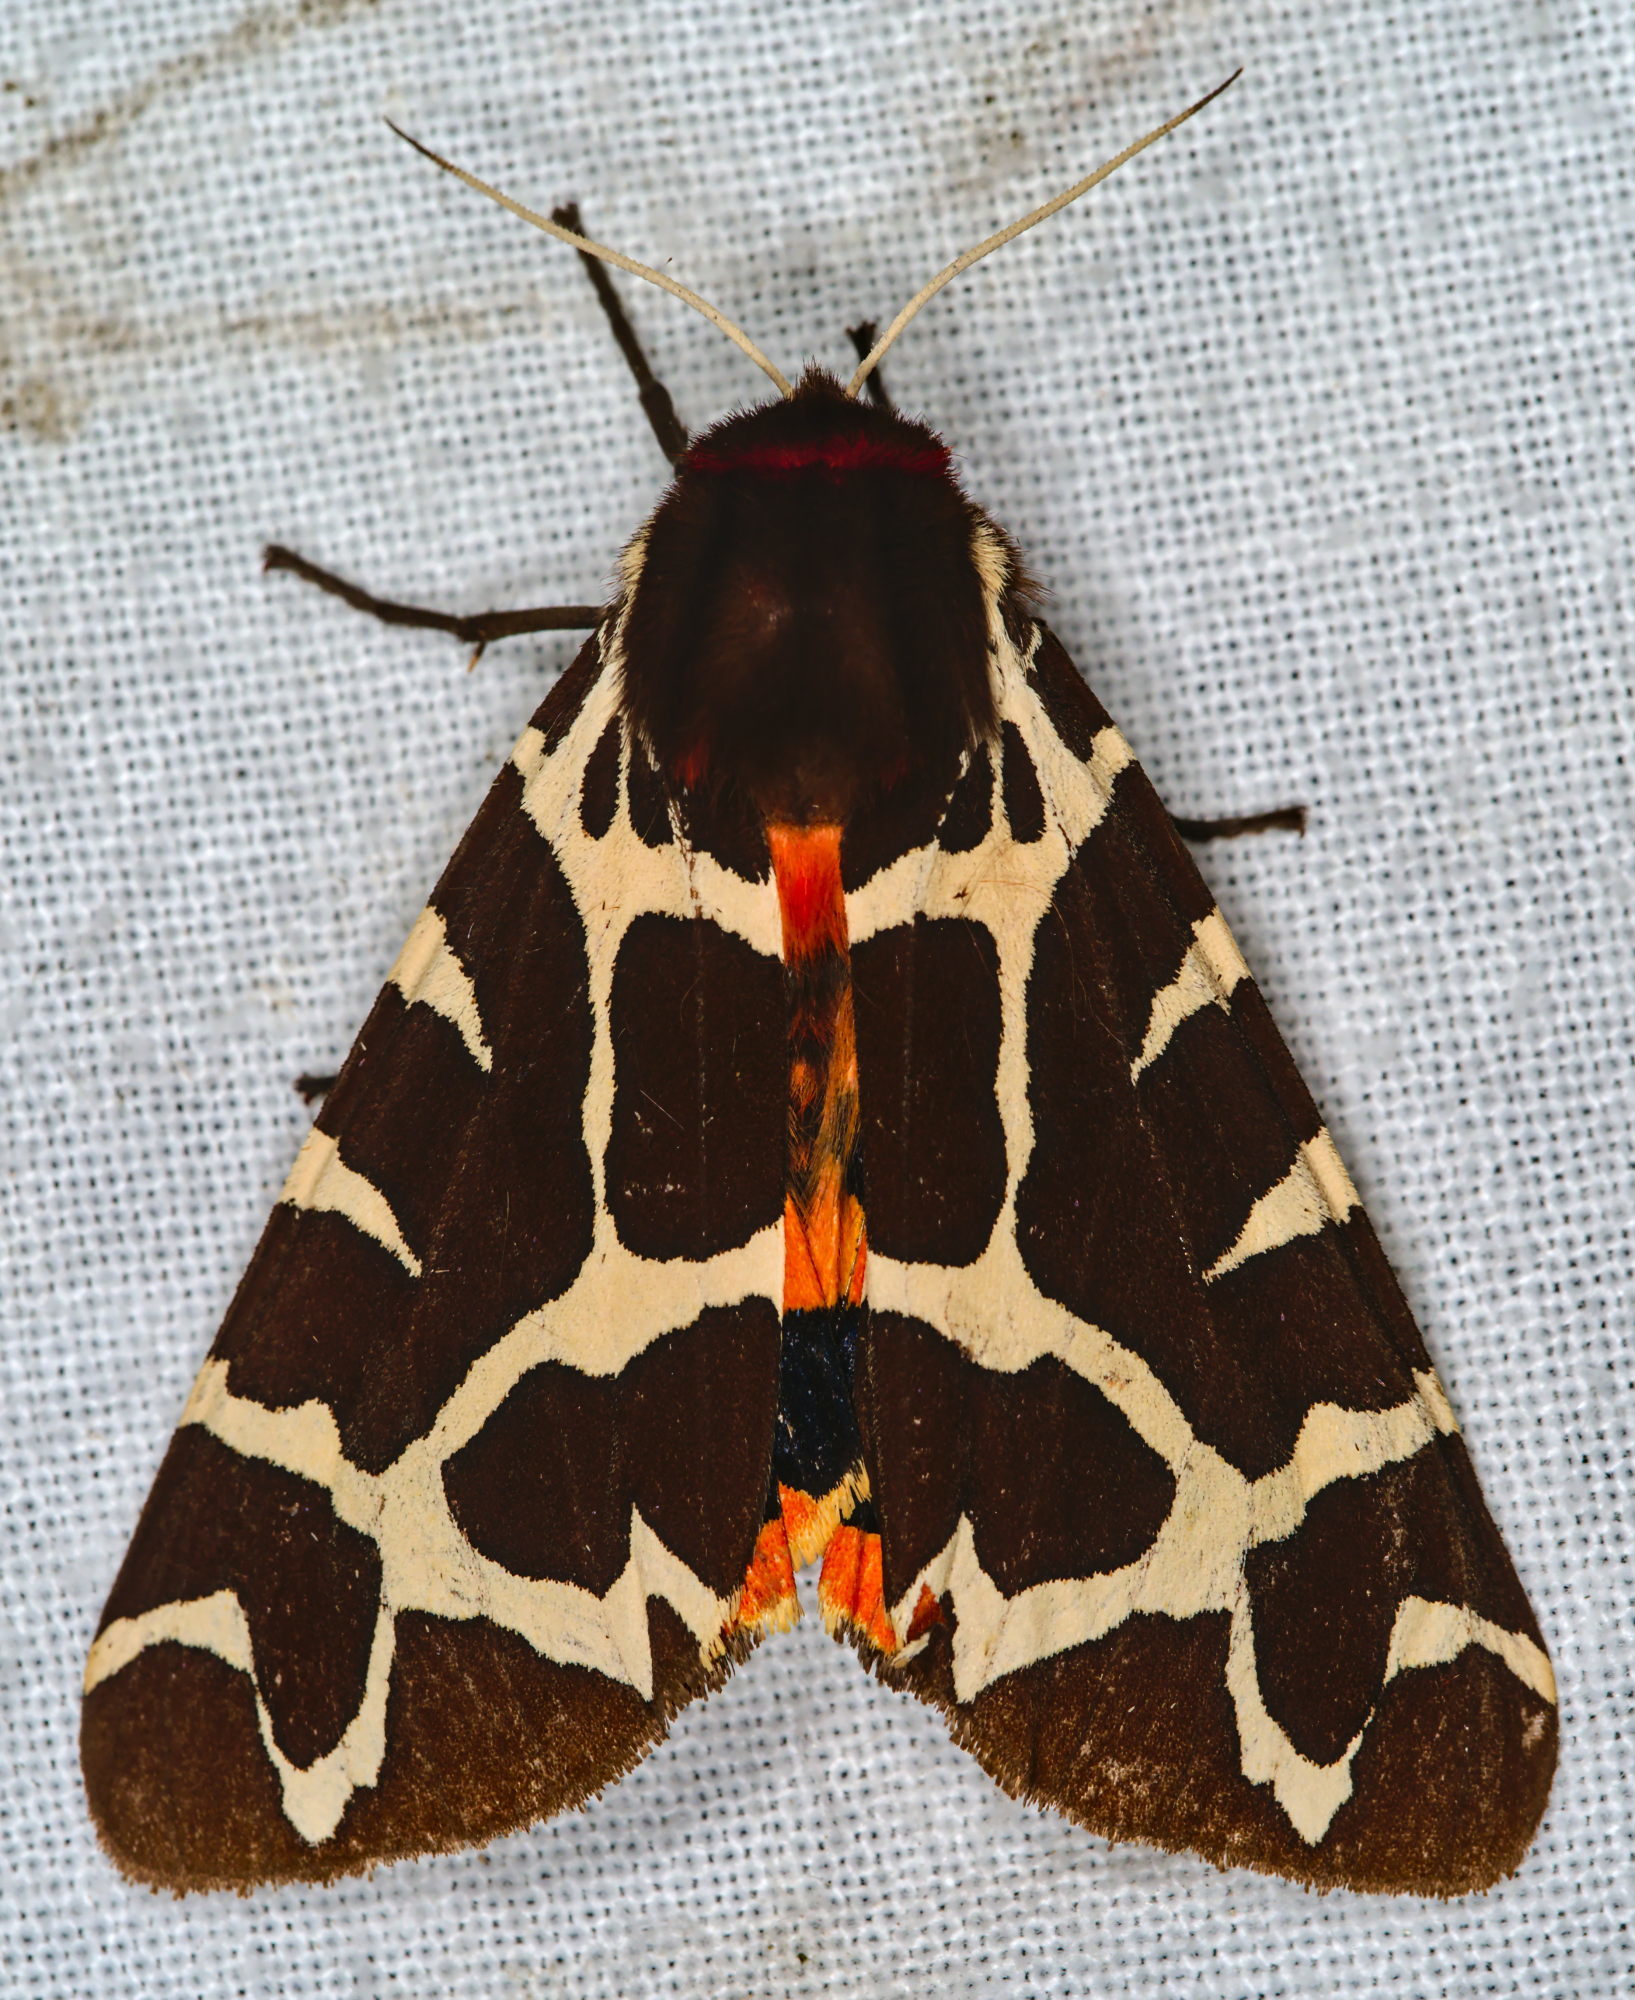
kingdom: Animalia
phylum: Arthropoda
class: Insecta
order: Lepidoptera
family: Erebidae
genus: Arctia
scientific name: Arctia caja
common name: Garden tiger
